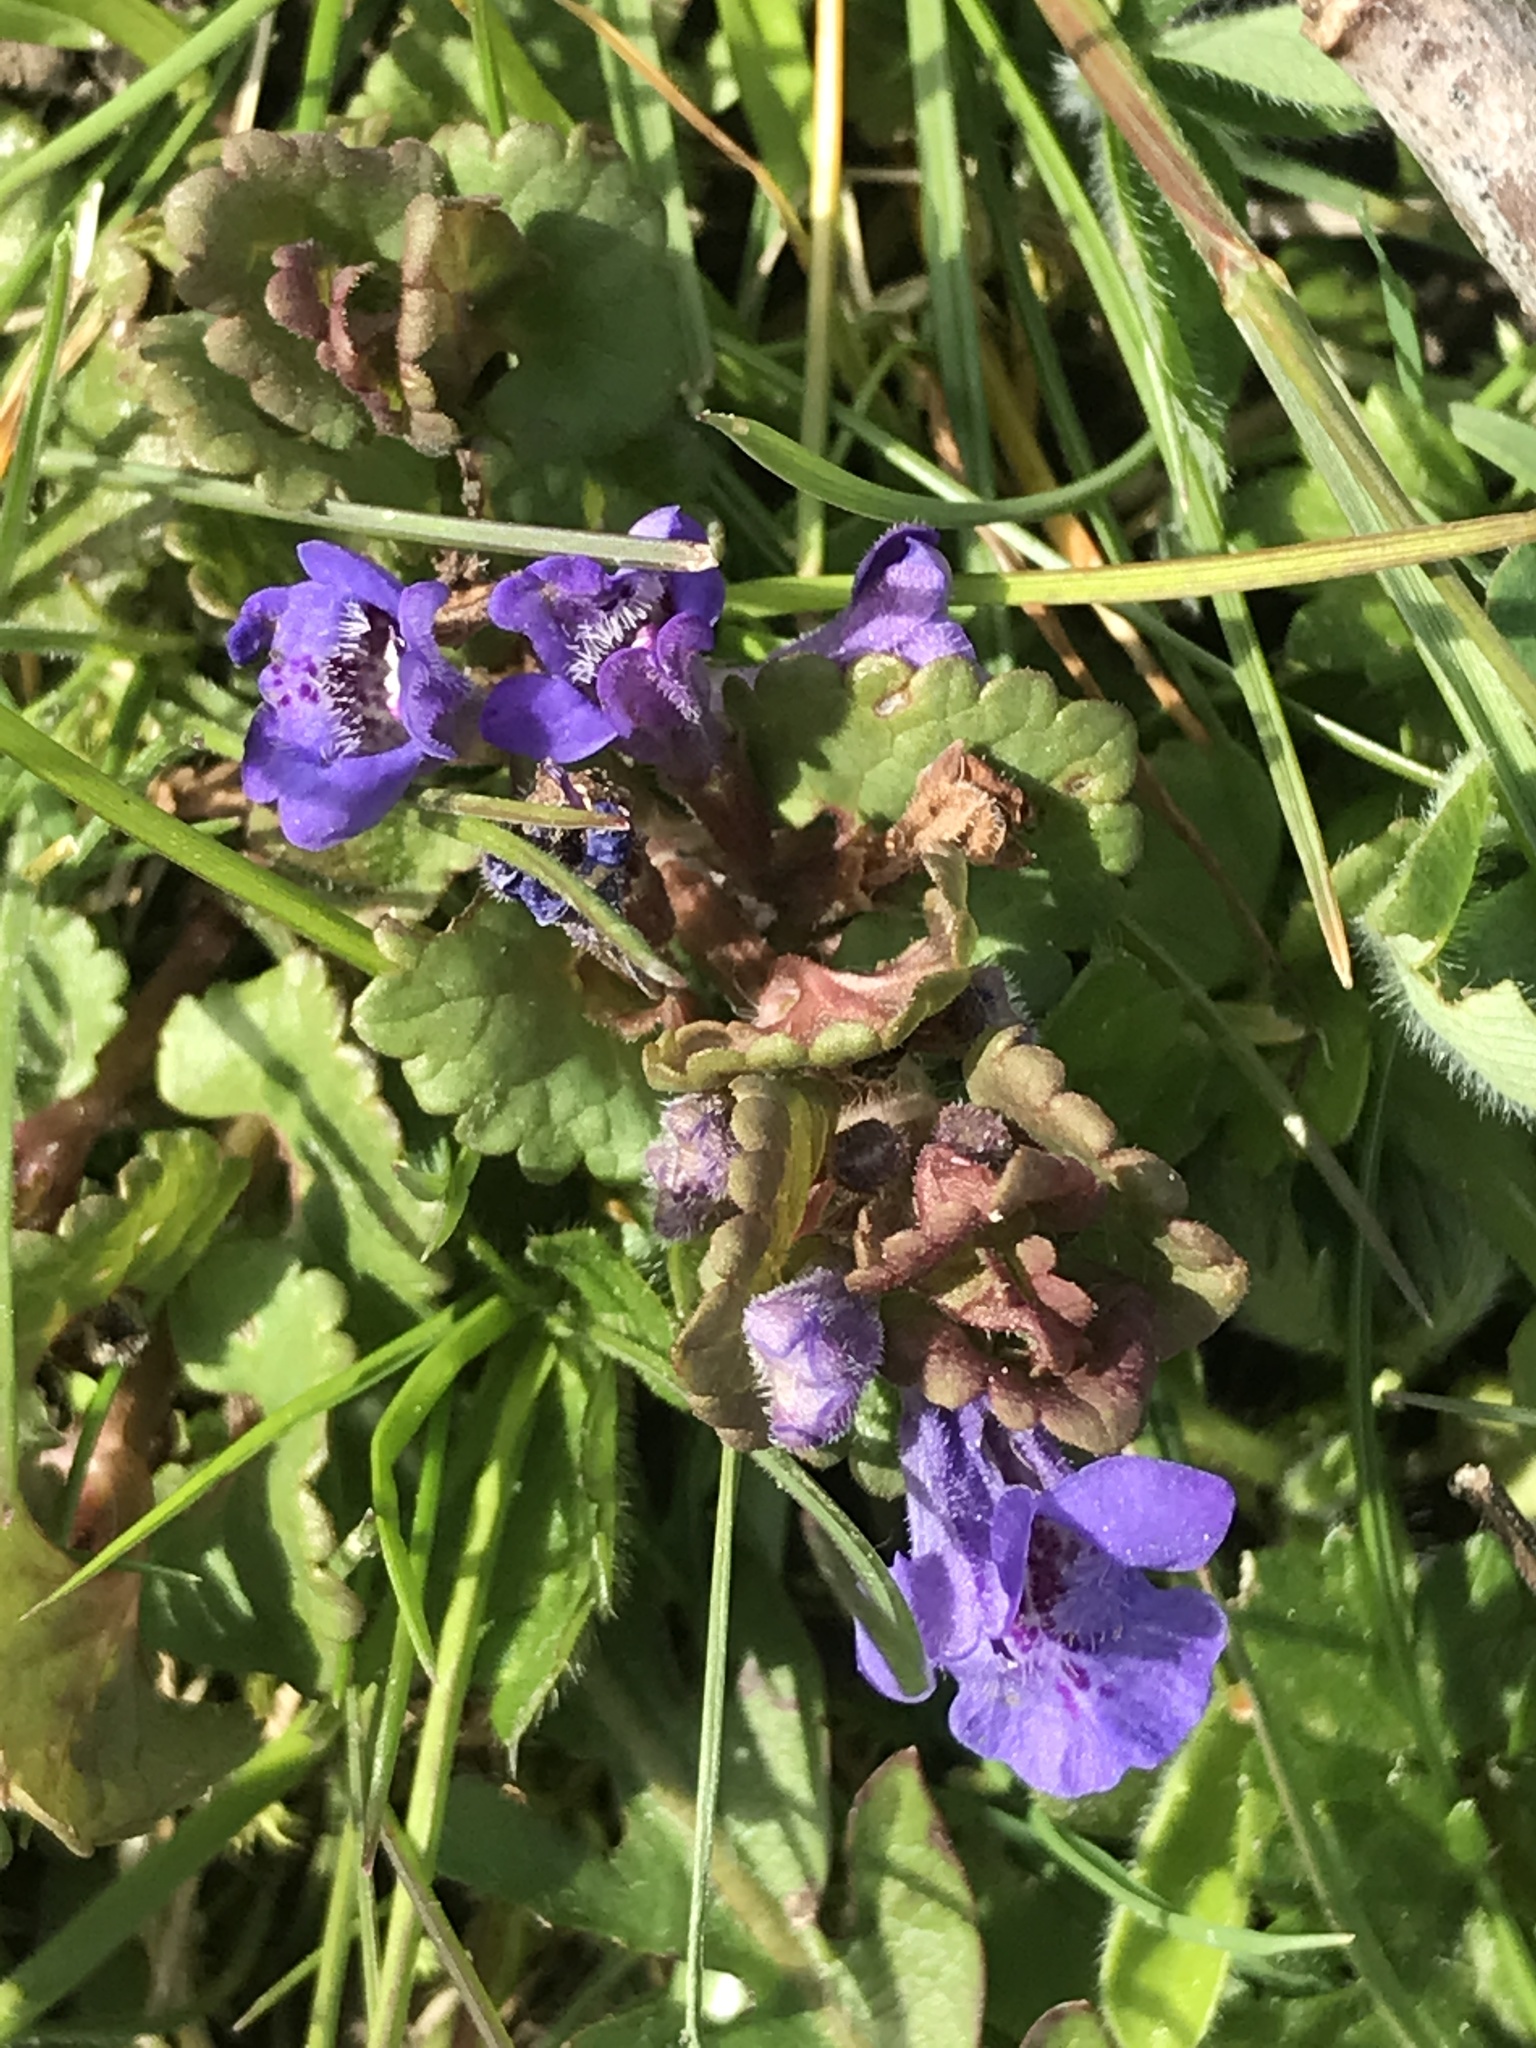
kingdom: Plantae
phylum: Tracheophyta
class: Magnoliopsida
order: Lamiales
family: Lamiaceae
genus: Glechoma
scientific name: Glechoma hederacea
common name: Ground ivy
